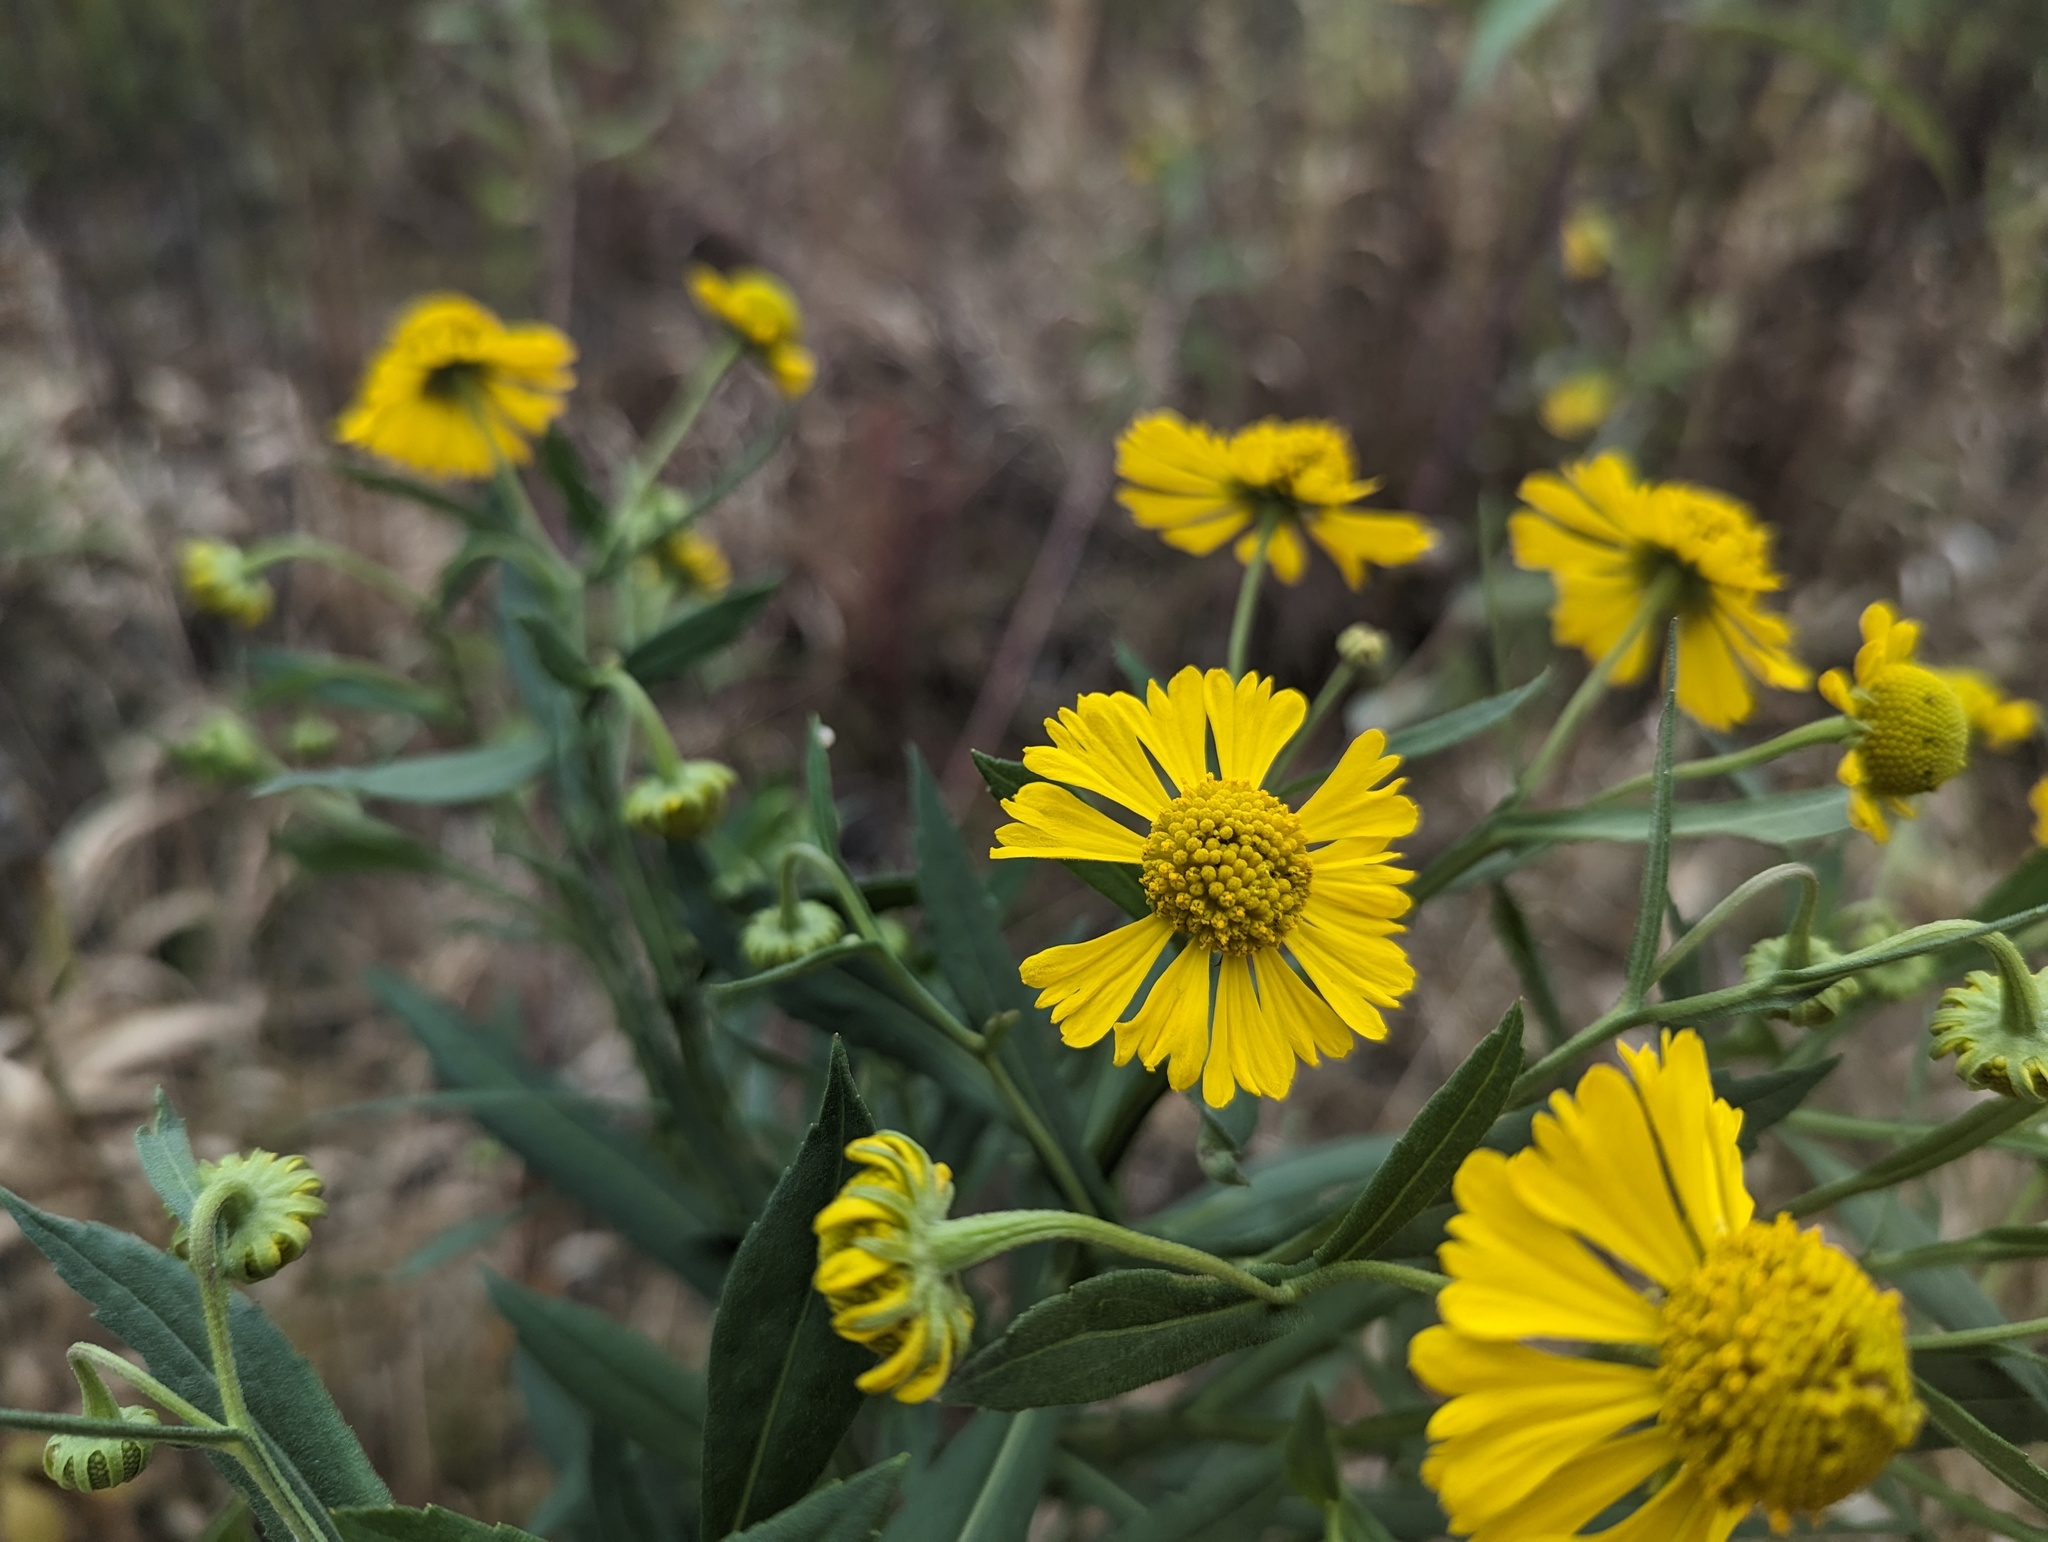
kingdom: Plantae
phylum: Tracheophyta
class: Magnoliopsida
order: Asterales
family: Asteraceae
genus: Helenium
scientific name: Helenium autumnale
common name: Sneezeweed
